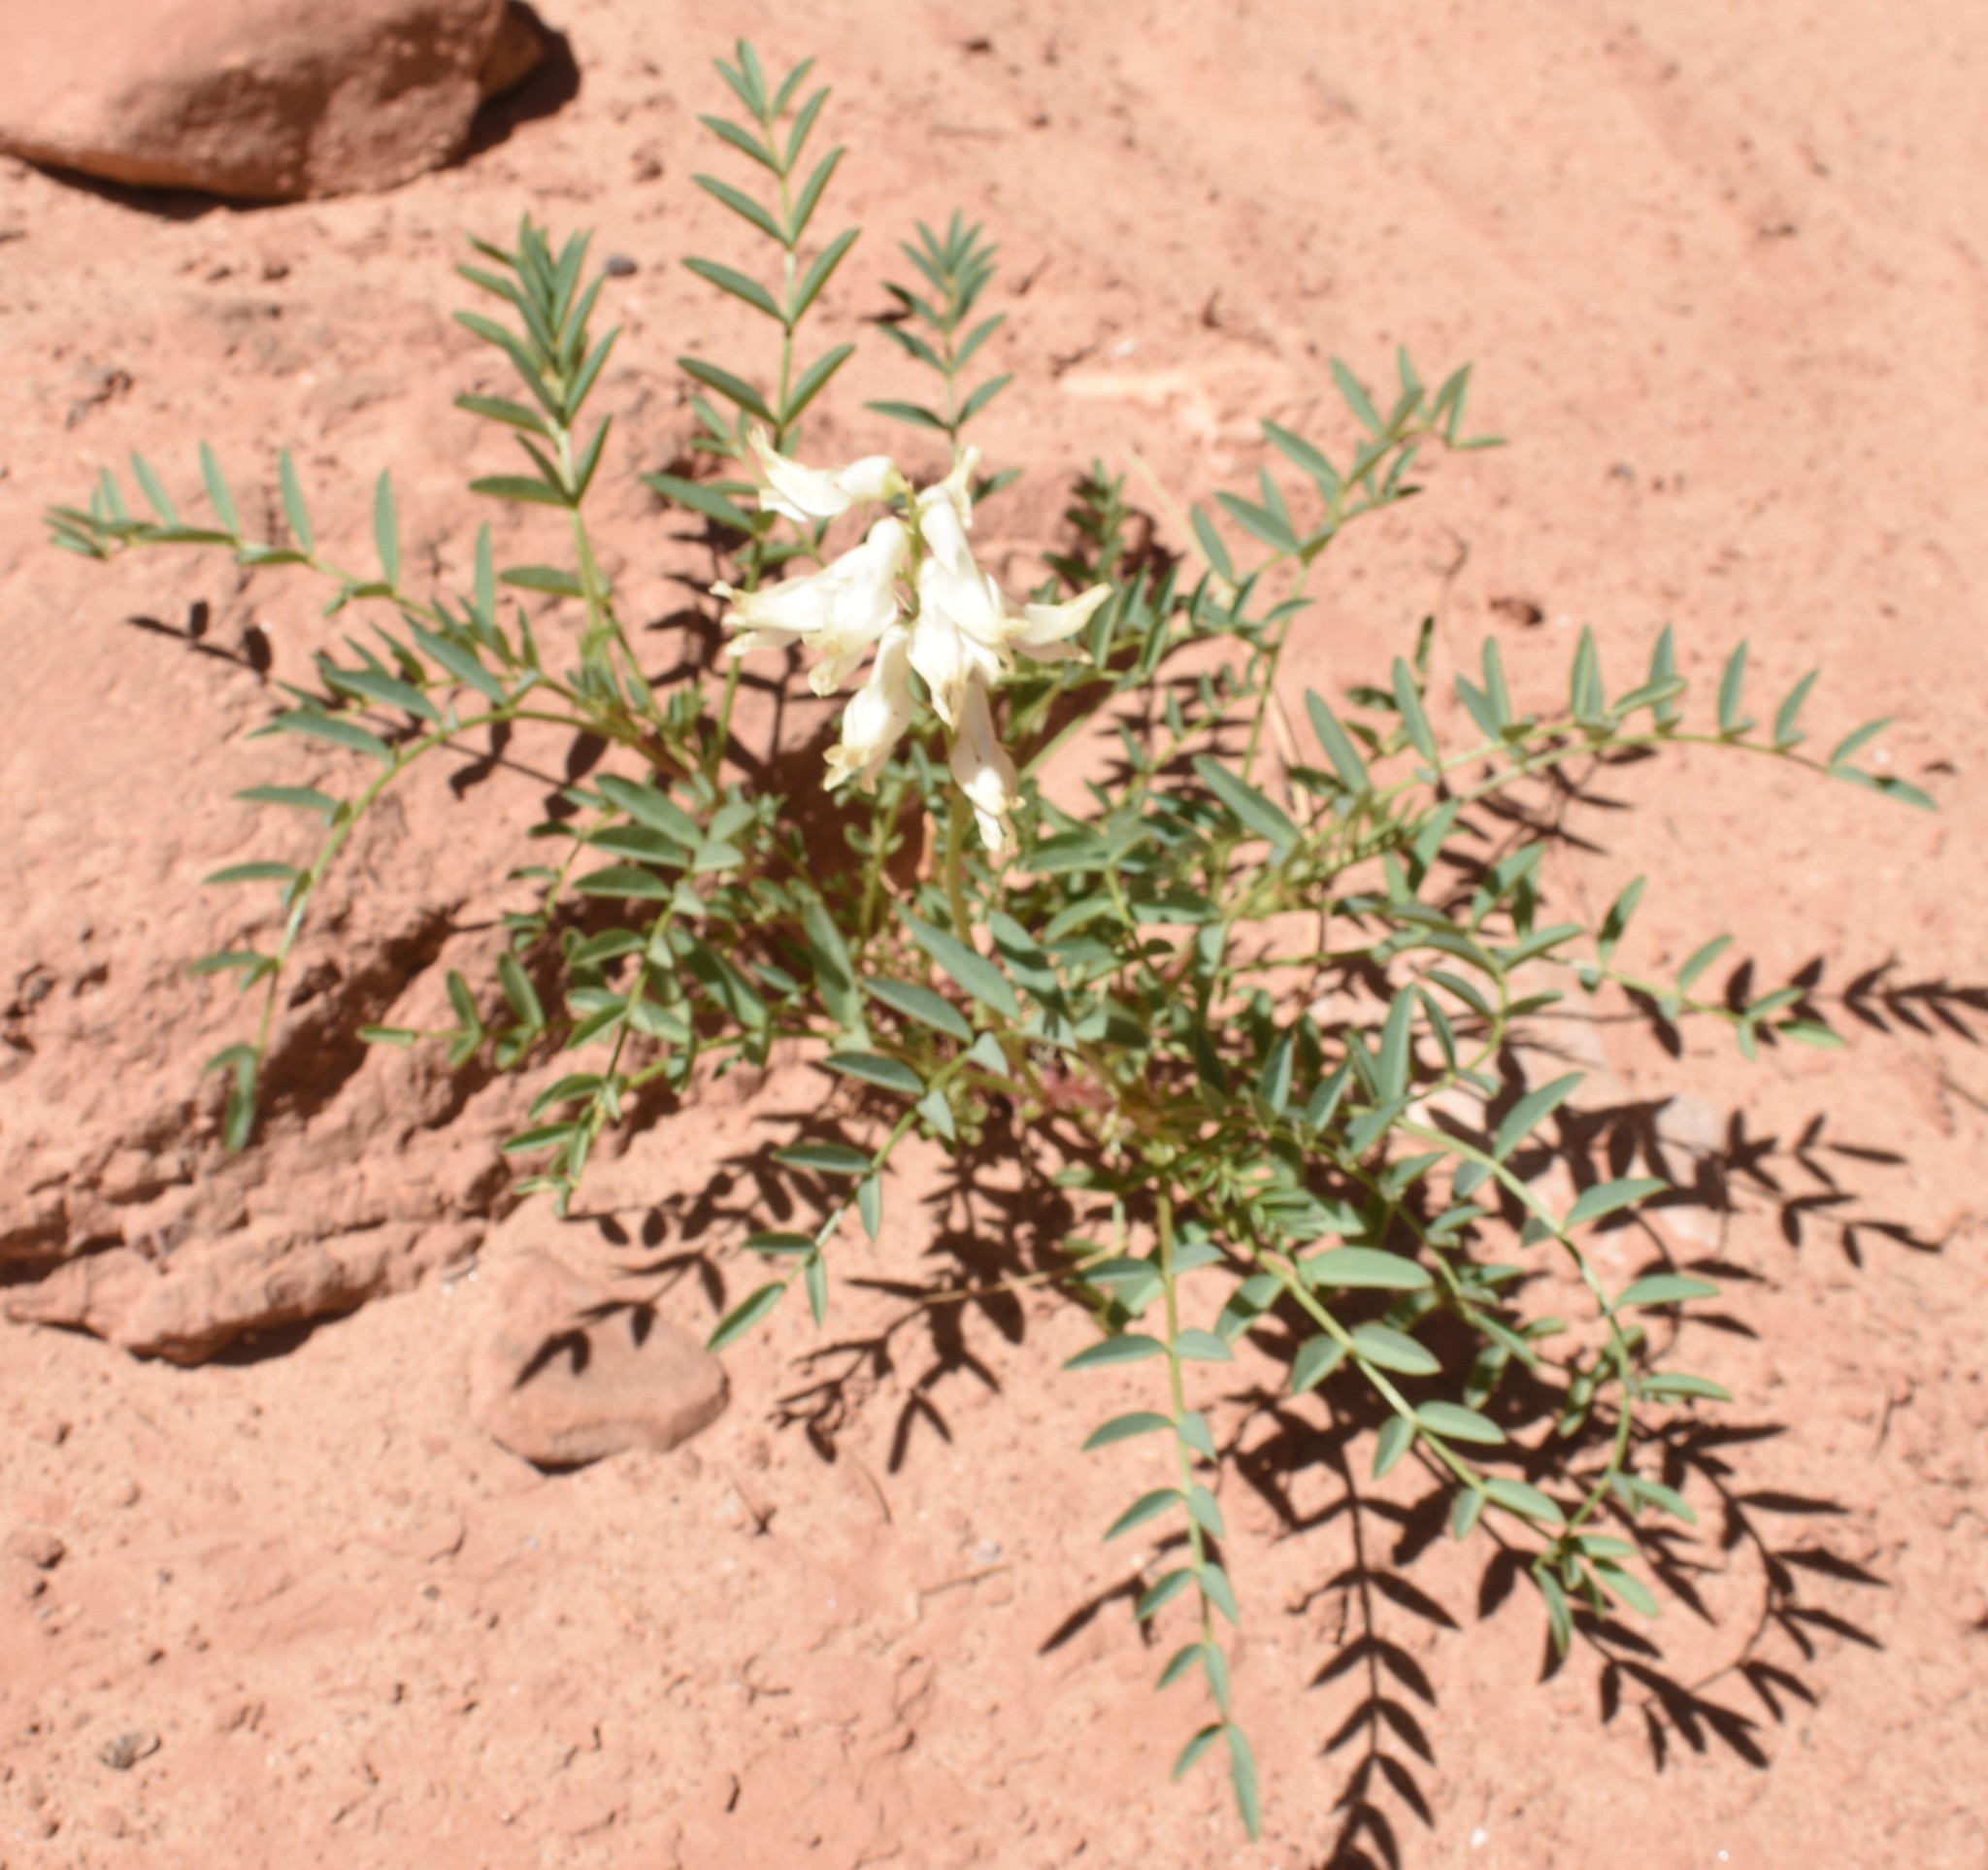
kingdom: Plantae
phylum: Tracheophyta
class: Magnoliopsida
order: Fabales
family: Fabaceae
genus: Astragalus
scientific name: Astragalus praelongus
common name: Stinking milk-vetch
